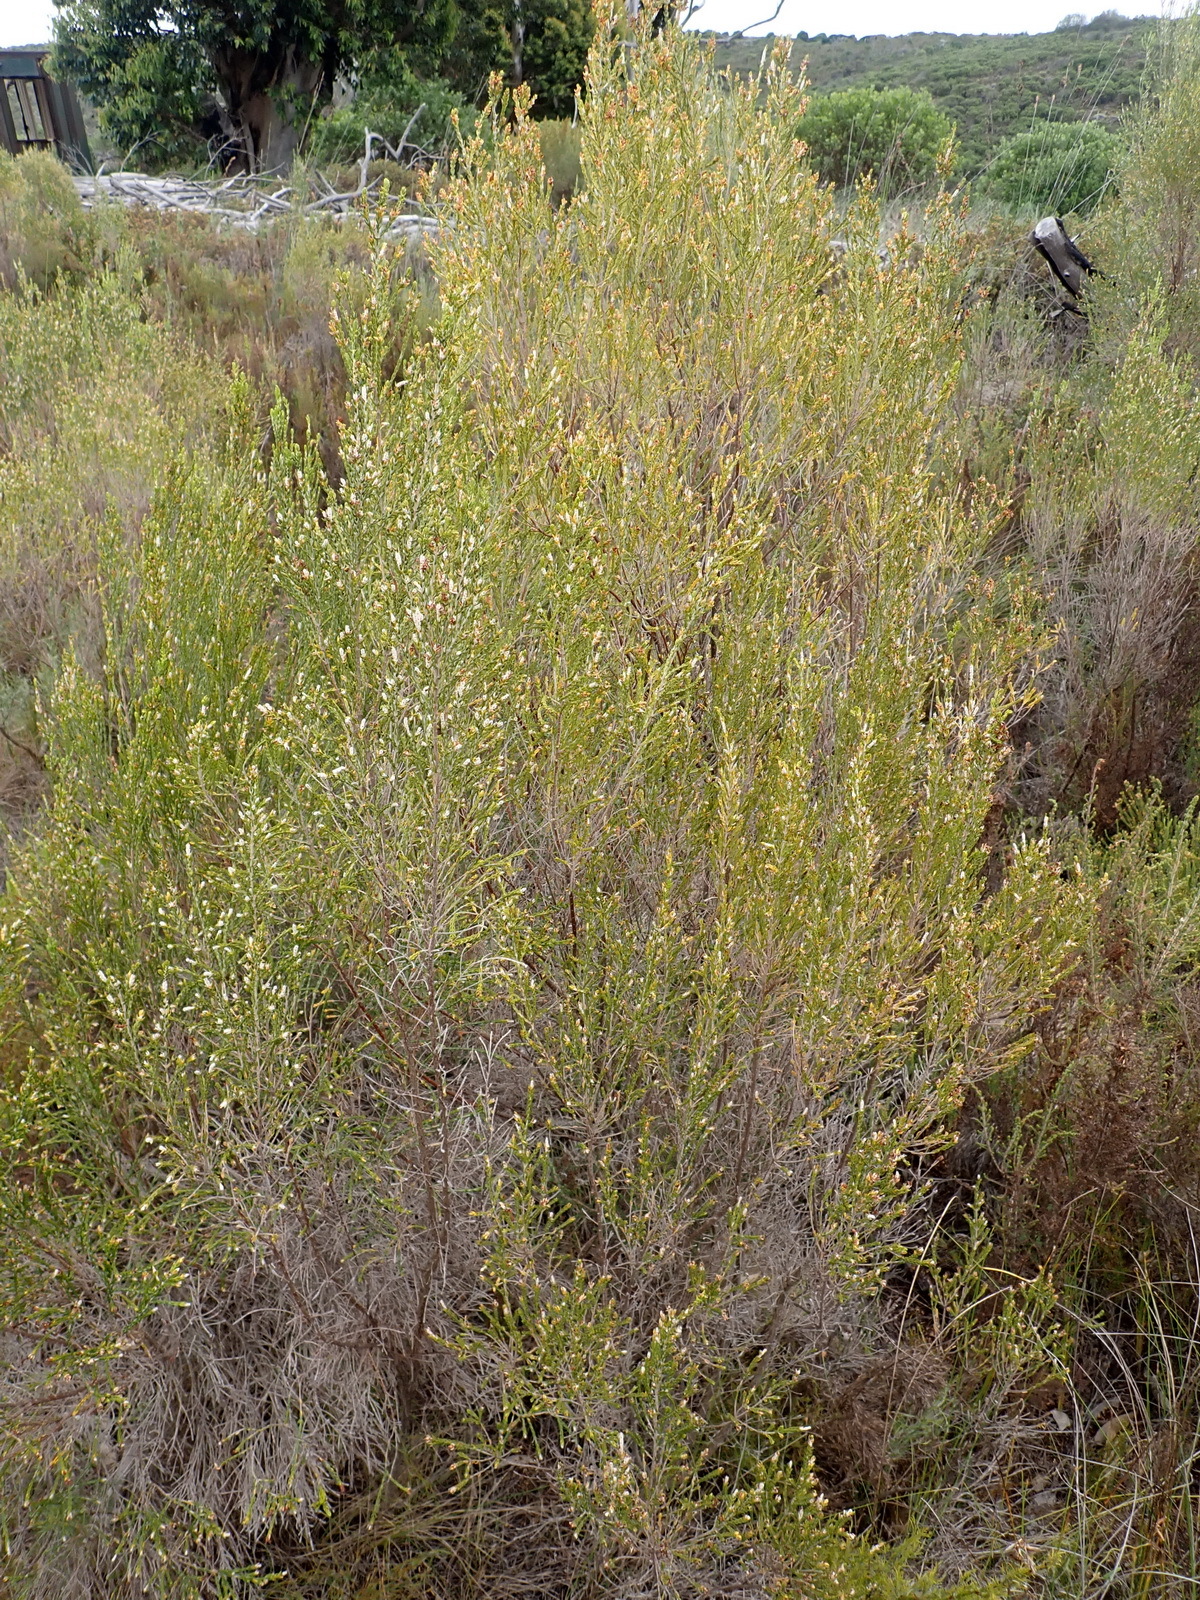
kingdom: Plantae
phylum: Tracheophyta
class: Magnoliopsida
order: Malvales
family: Thymelaeaceae
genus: Passerina
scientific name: Passerina corymbosa
